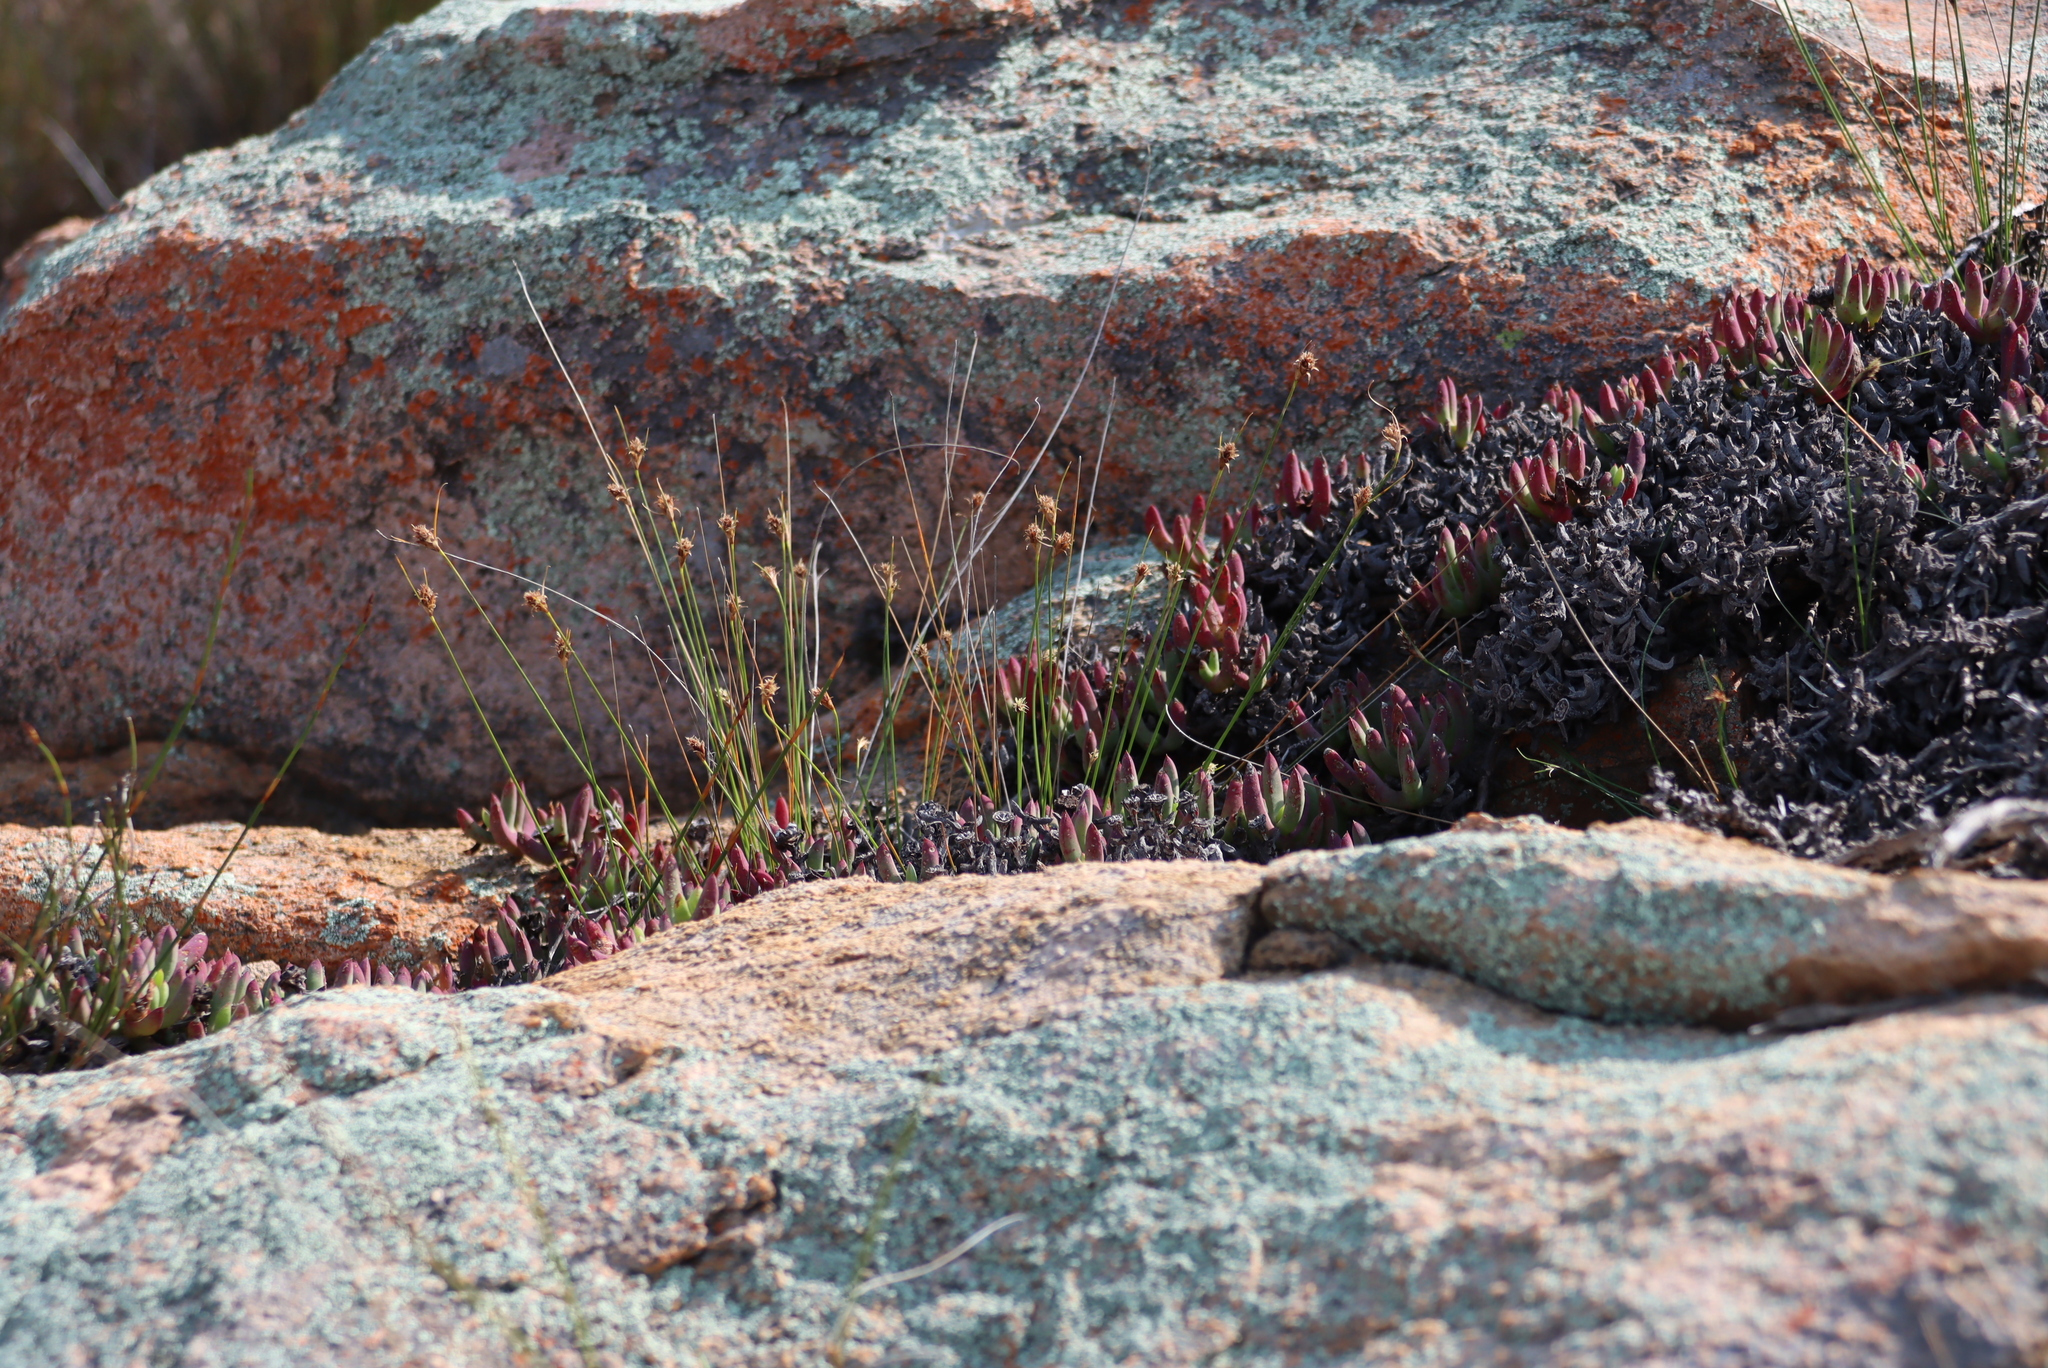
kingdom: Plantae
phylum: Tracheophyta
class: Liliopsida
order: Poales
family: Cyperaceae
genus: Ficinia
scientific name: Ficinia nigrescens
